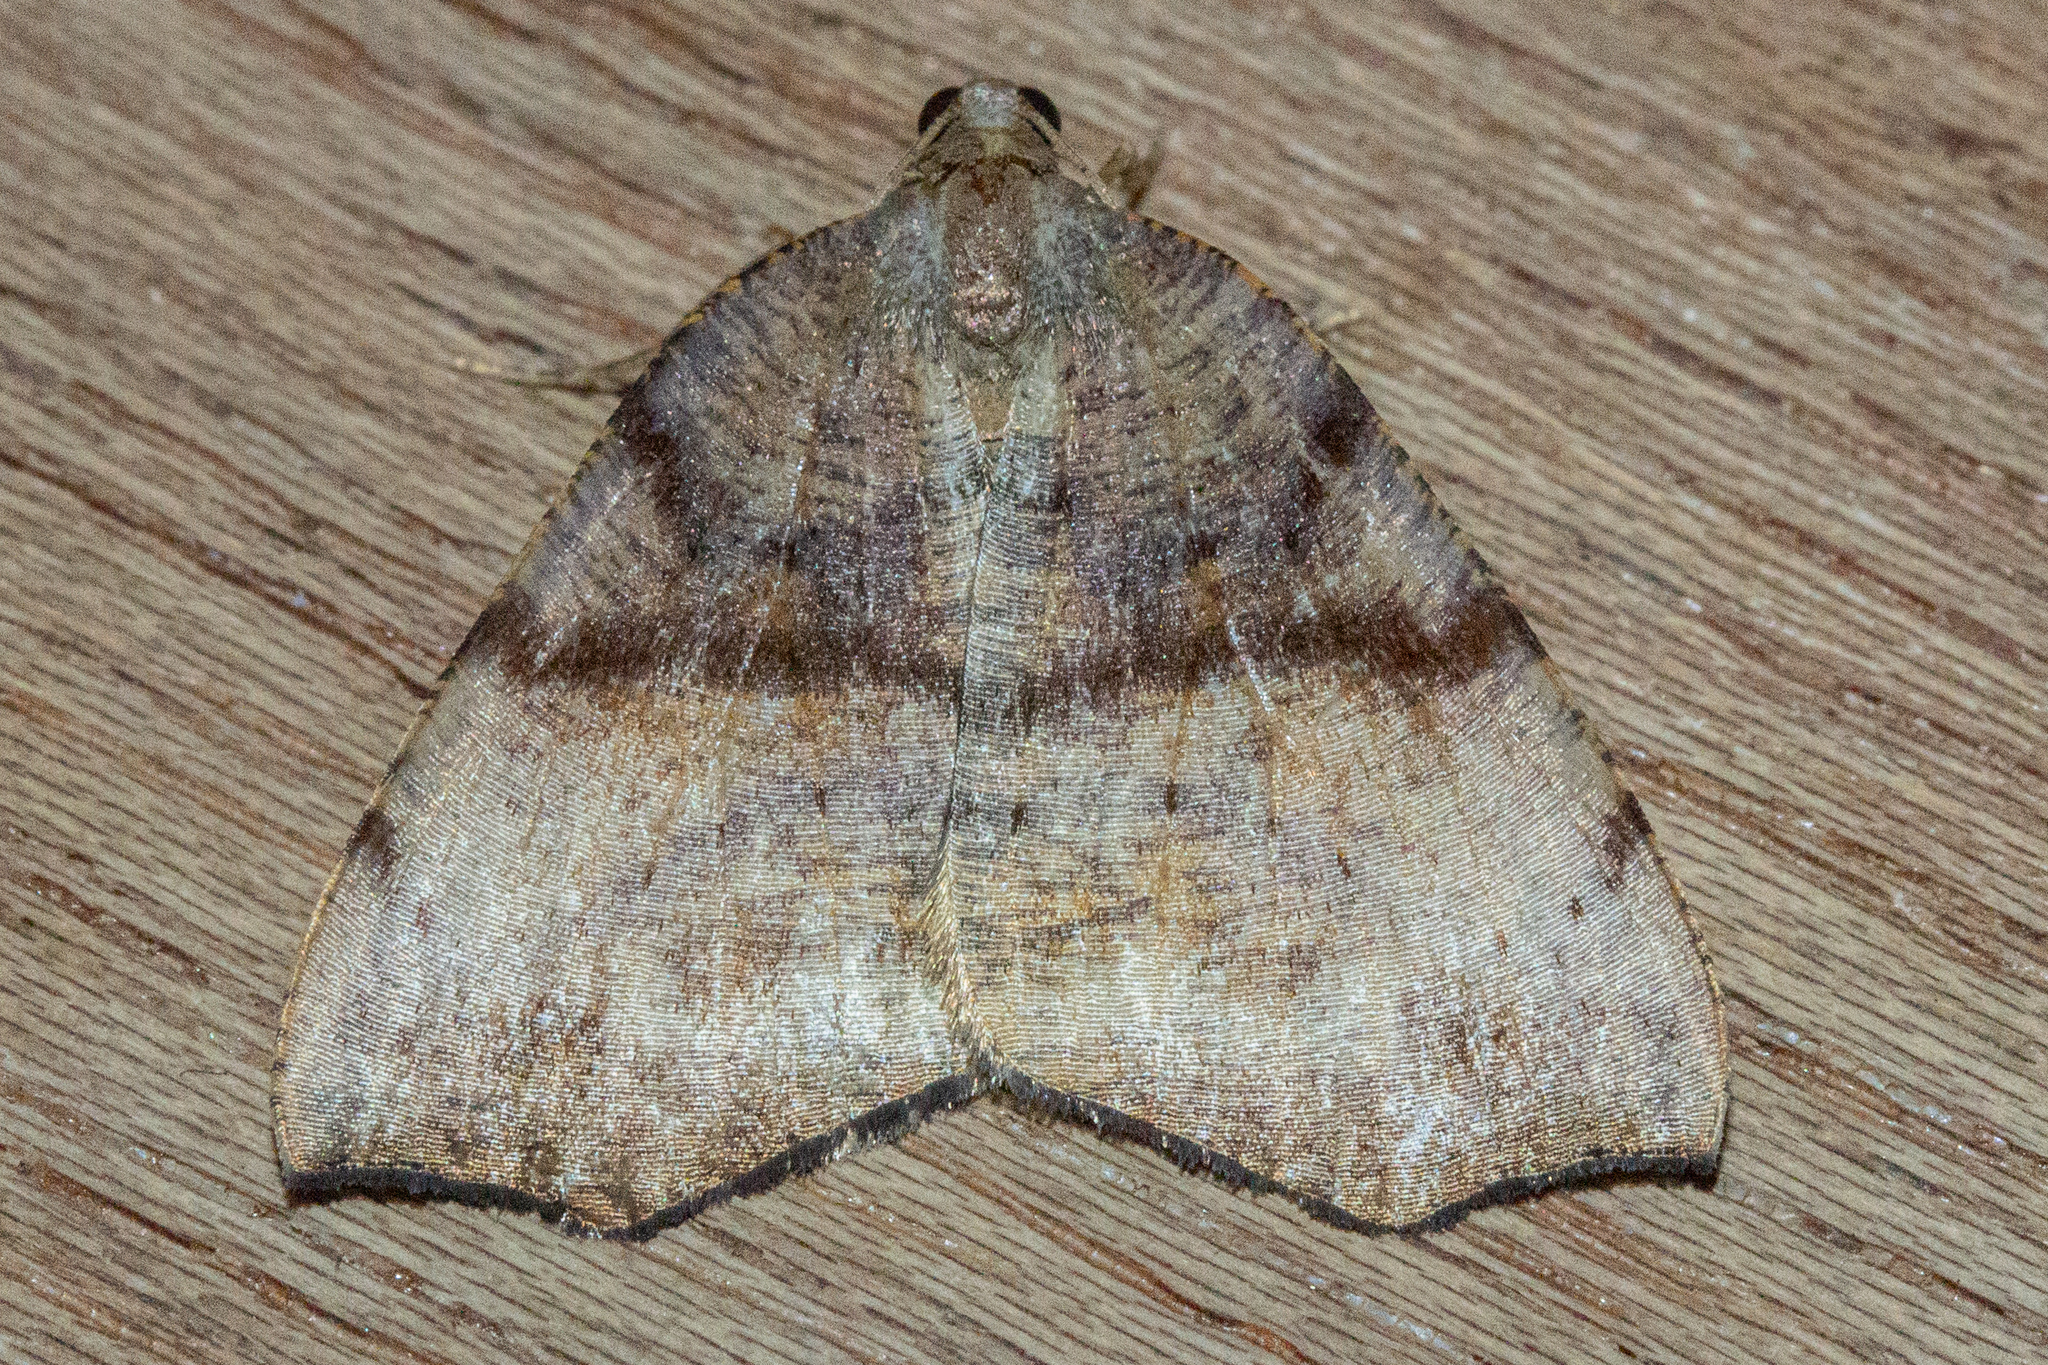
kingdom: Animalia
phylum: Arthropoda
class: Insecta
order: Lepidoptera
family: Geometridae
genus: Sestra
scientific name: Sestra flexata
